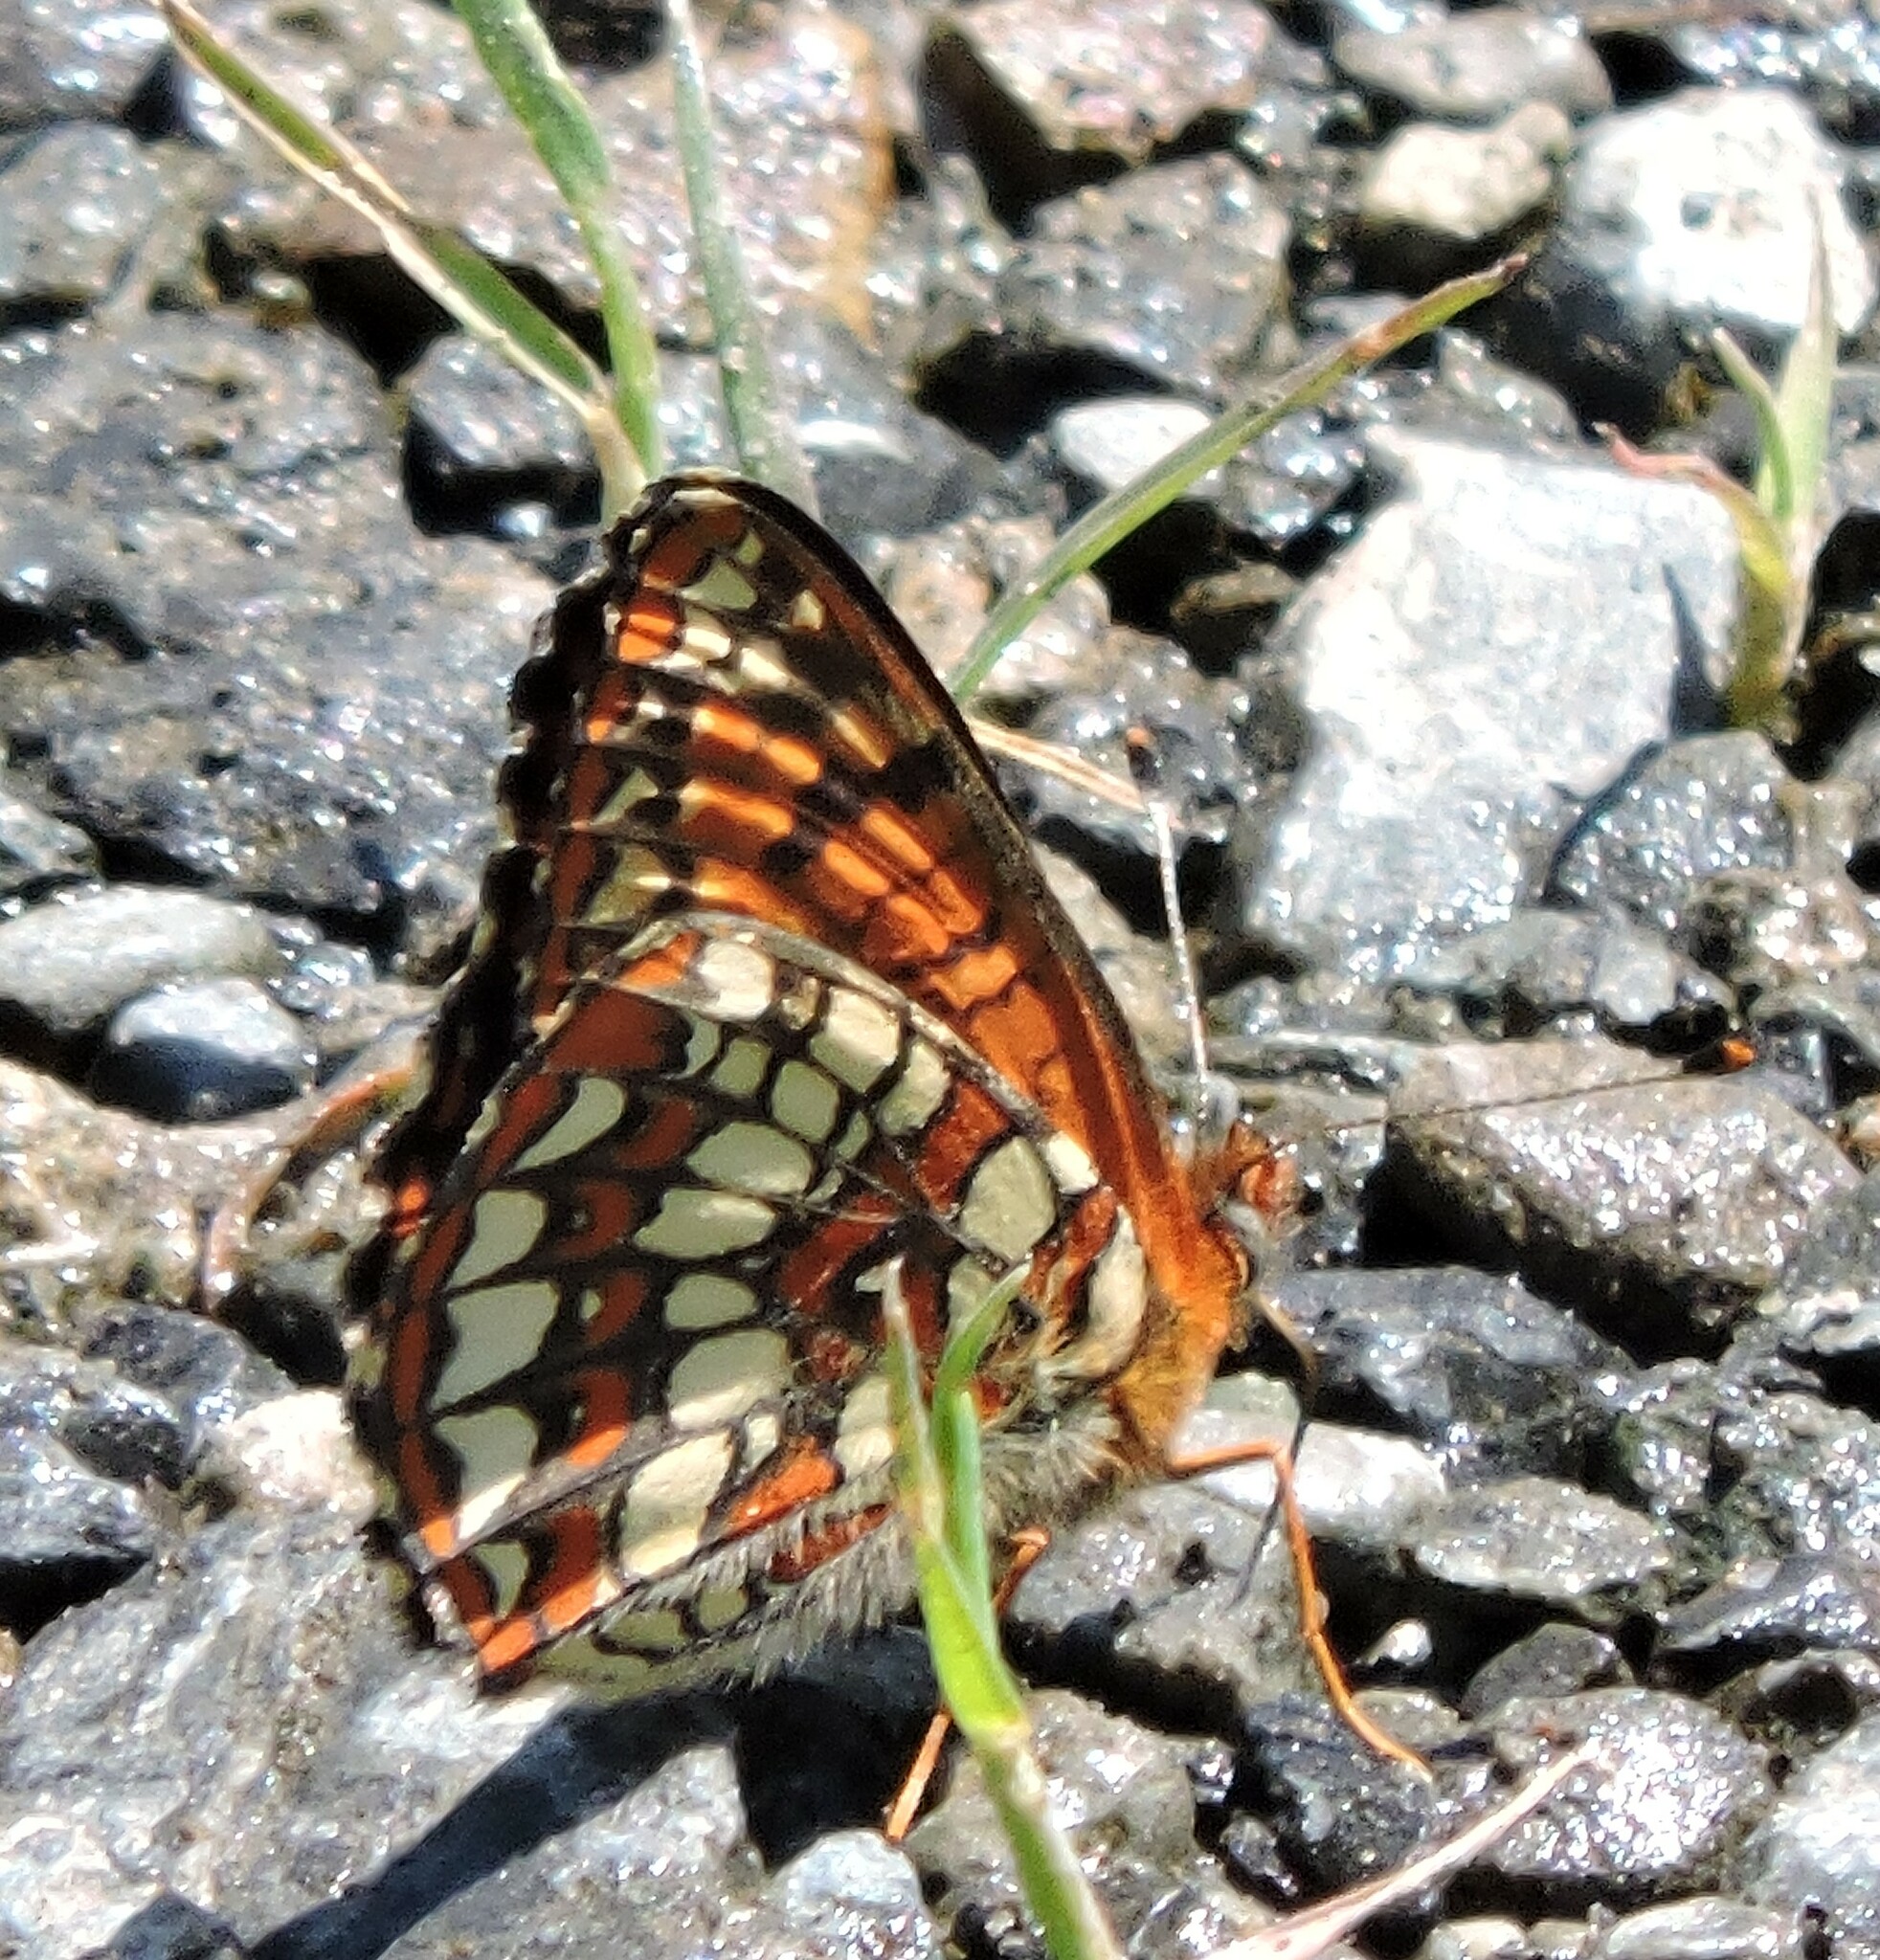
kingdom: Animalia
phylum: Arthropoda
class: Insecta
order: Lepidoptera
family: Nymphalidae
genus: Chlosyne
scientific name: Chlosyne palla
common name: Northern checkerspot
